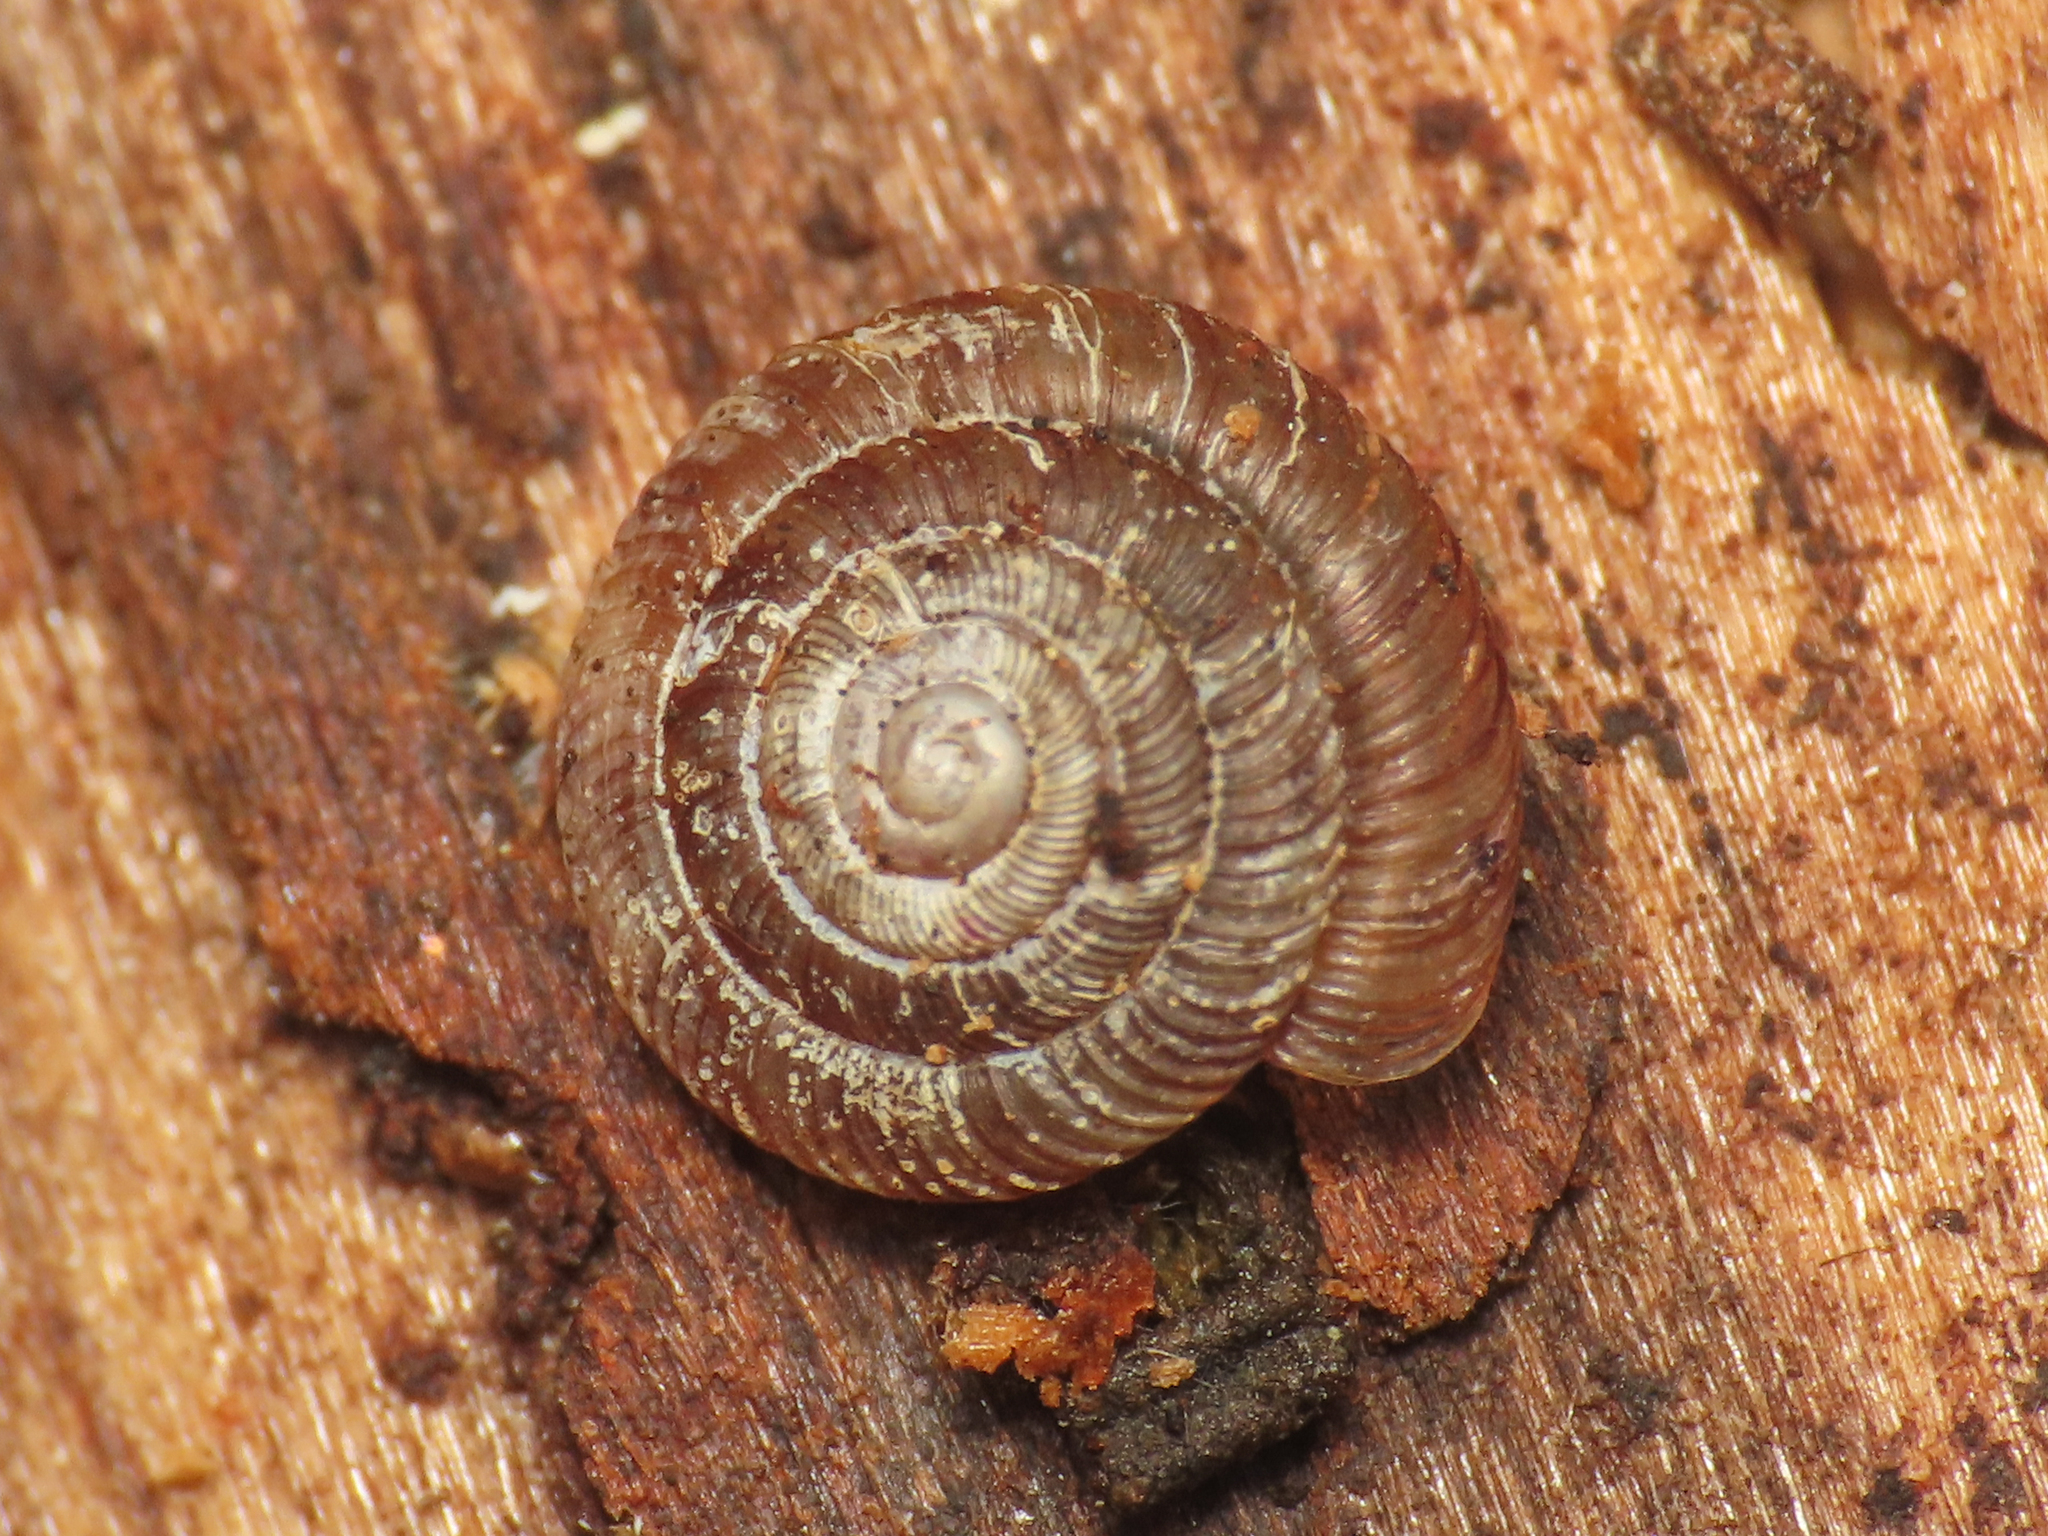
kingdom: Animalia
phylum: Mollusca
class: Gastropoda
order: Stylommatophora
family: Discidae
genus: Discus
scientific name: Discus rotundatus
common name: Rounded snail
